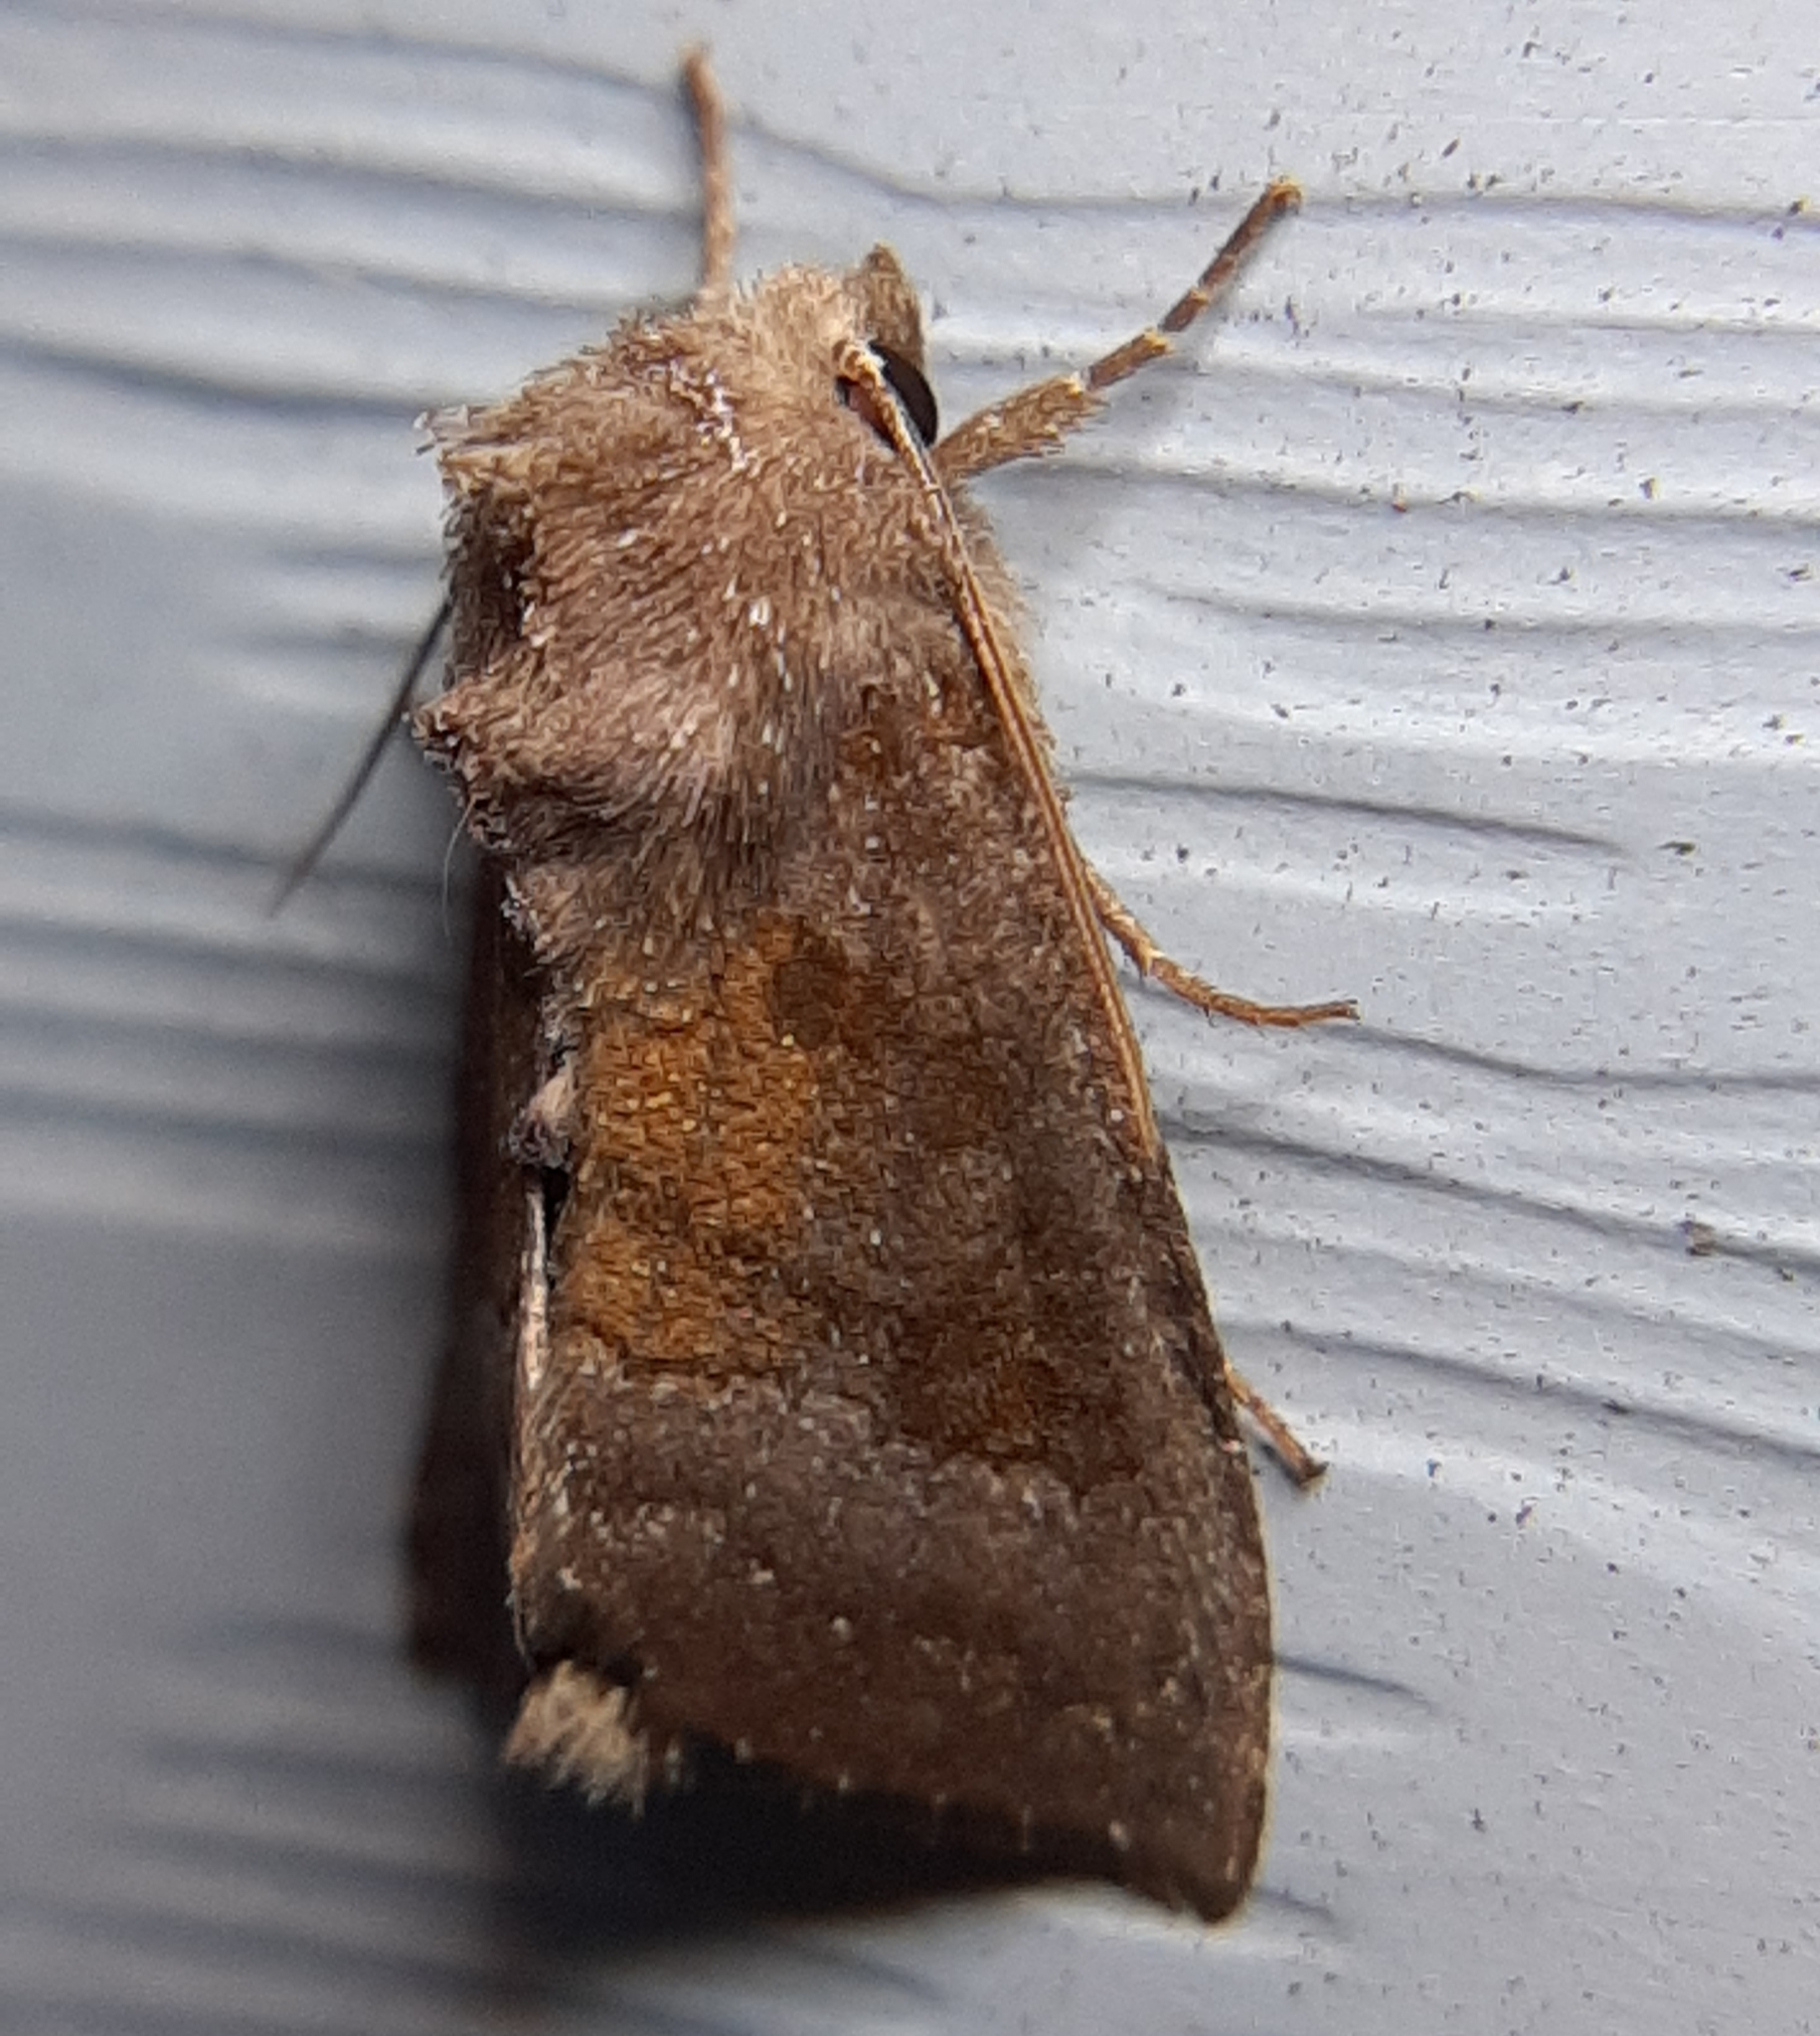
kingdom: Animalia
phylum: Arthropoda
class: Insecta
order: Lepidoptera
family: Noctuidae
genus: Papaipema
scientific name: Papaipema nelita
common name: Coneflower borer moth
